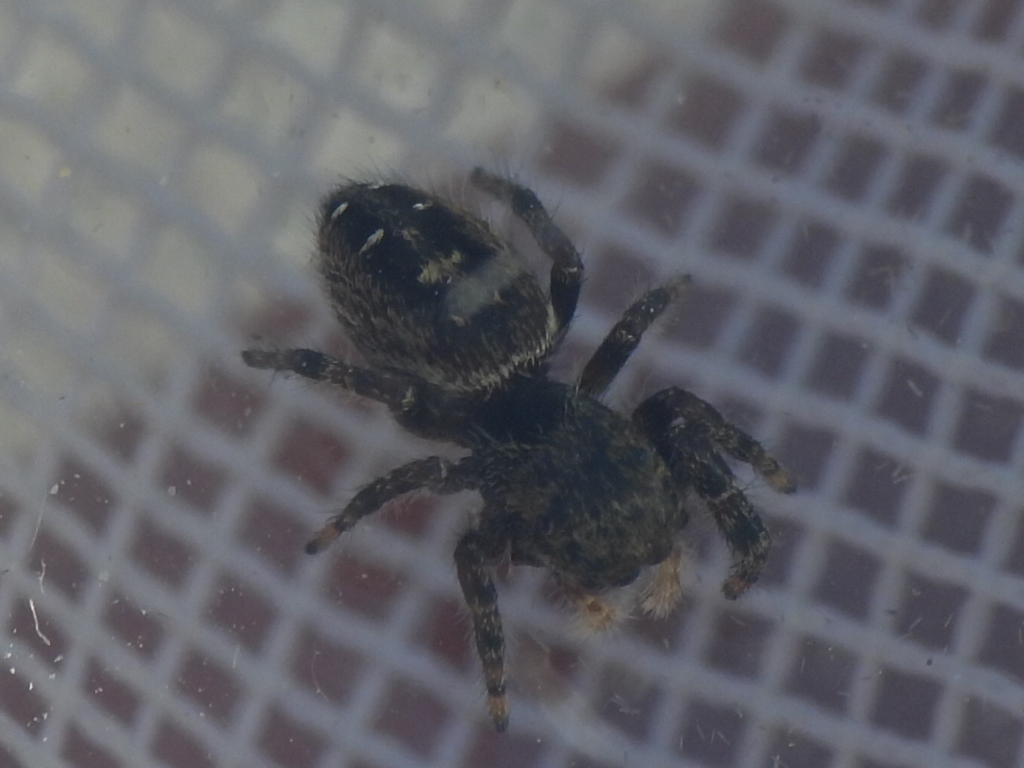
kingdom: Animalia
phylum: Arthropoda
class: Arachnida
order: Araneae
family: Salticidae
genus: Phidippus
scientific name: Phidippus texanus
